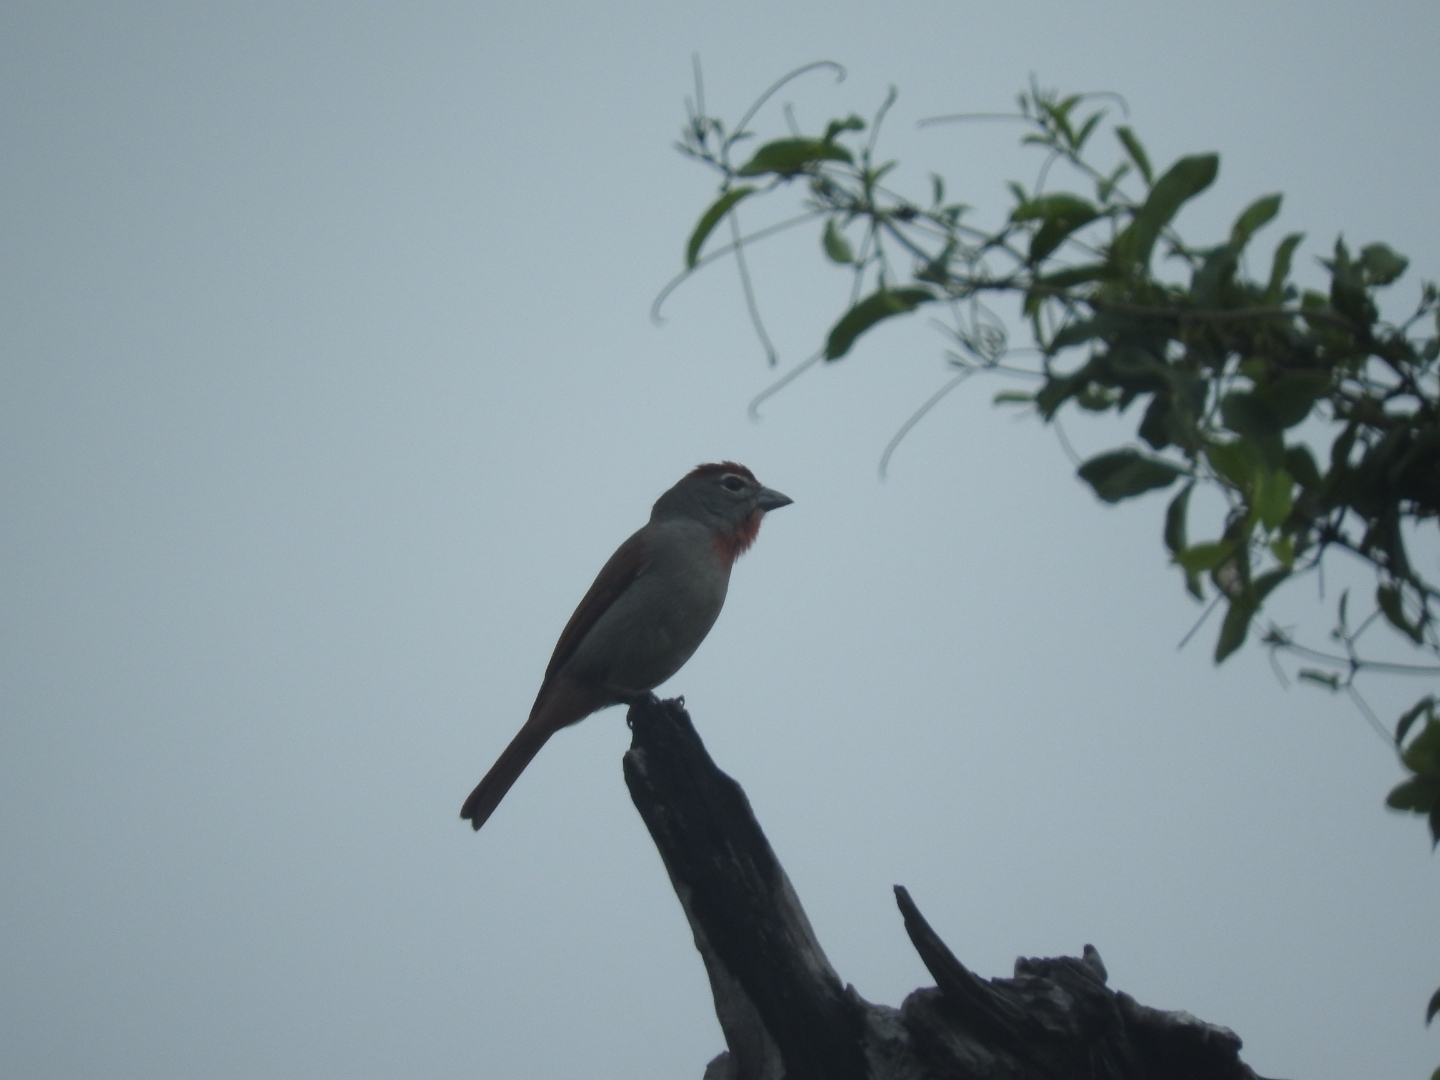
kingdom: Animalia
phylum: Chordata
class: Aves
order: Passeriformes
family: Cardinalidae
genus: Piranga
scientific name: Piranga roseogularis
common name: Rose-throated tanager
